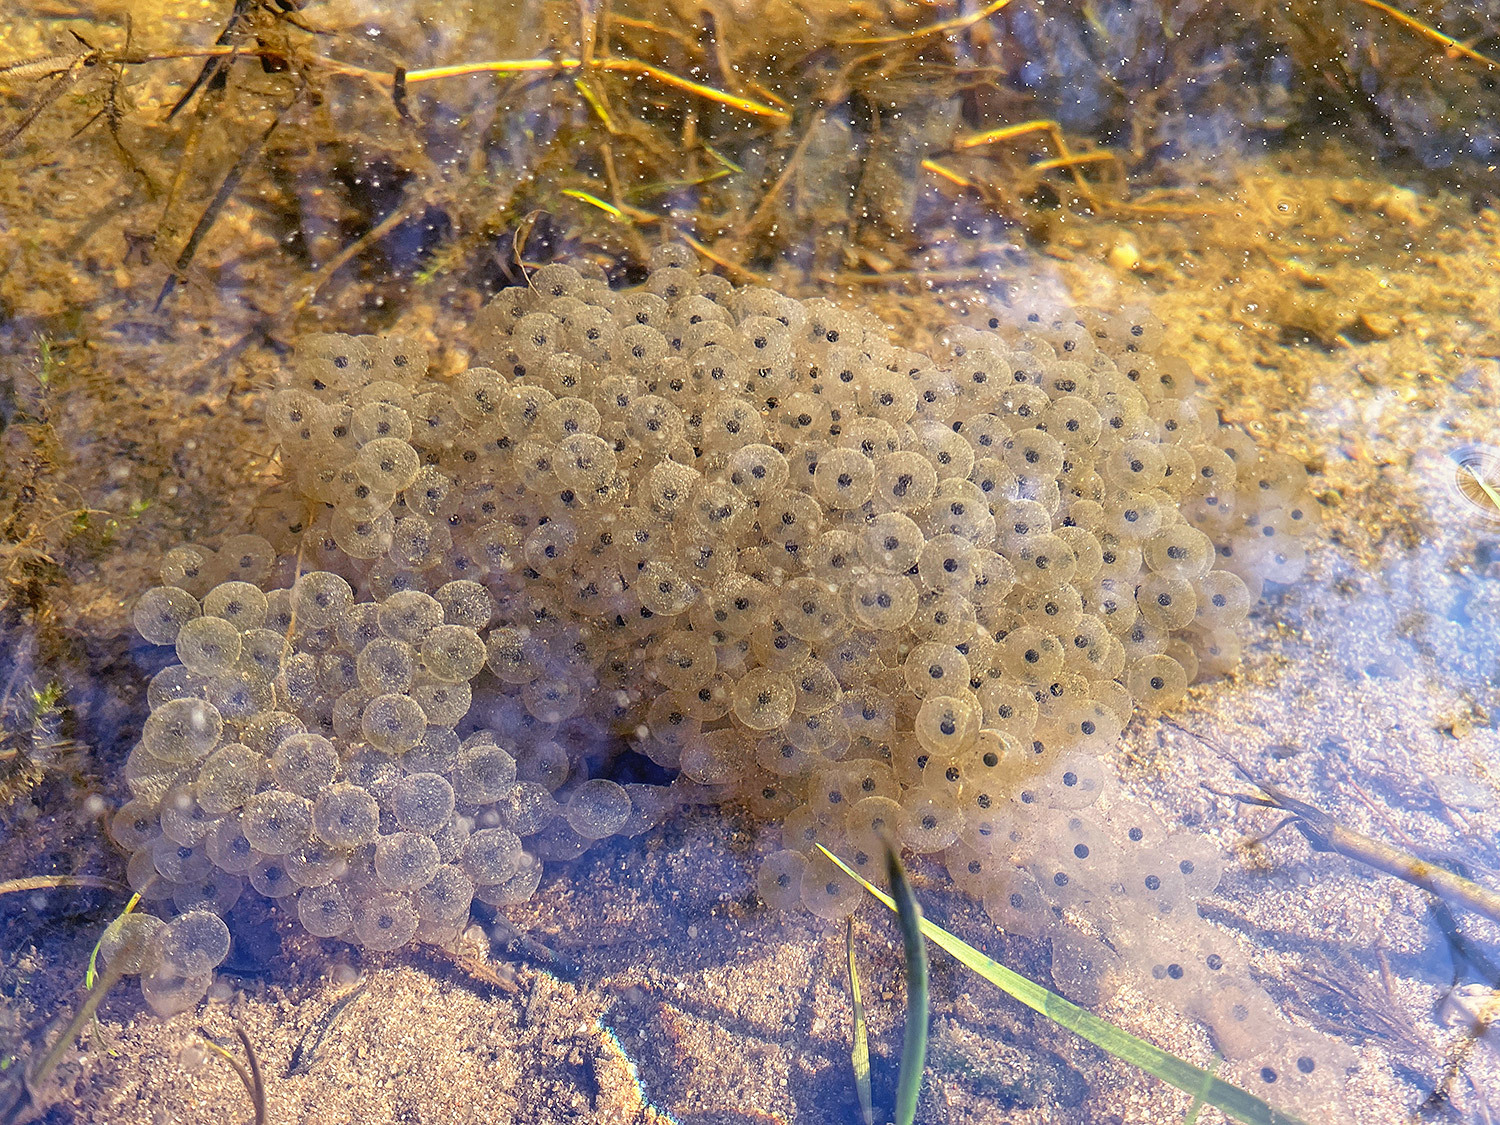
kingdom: Animalia
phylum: Chordata
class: Amphibia
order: Anura
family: Ranidae
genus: Rana
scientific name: Rana temporaria
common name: Common frog
